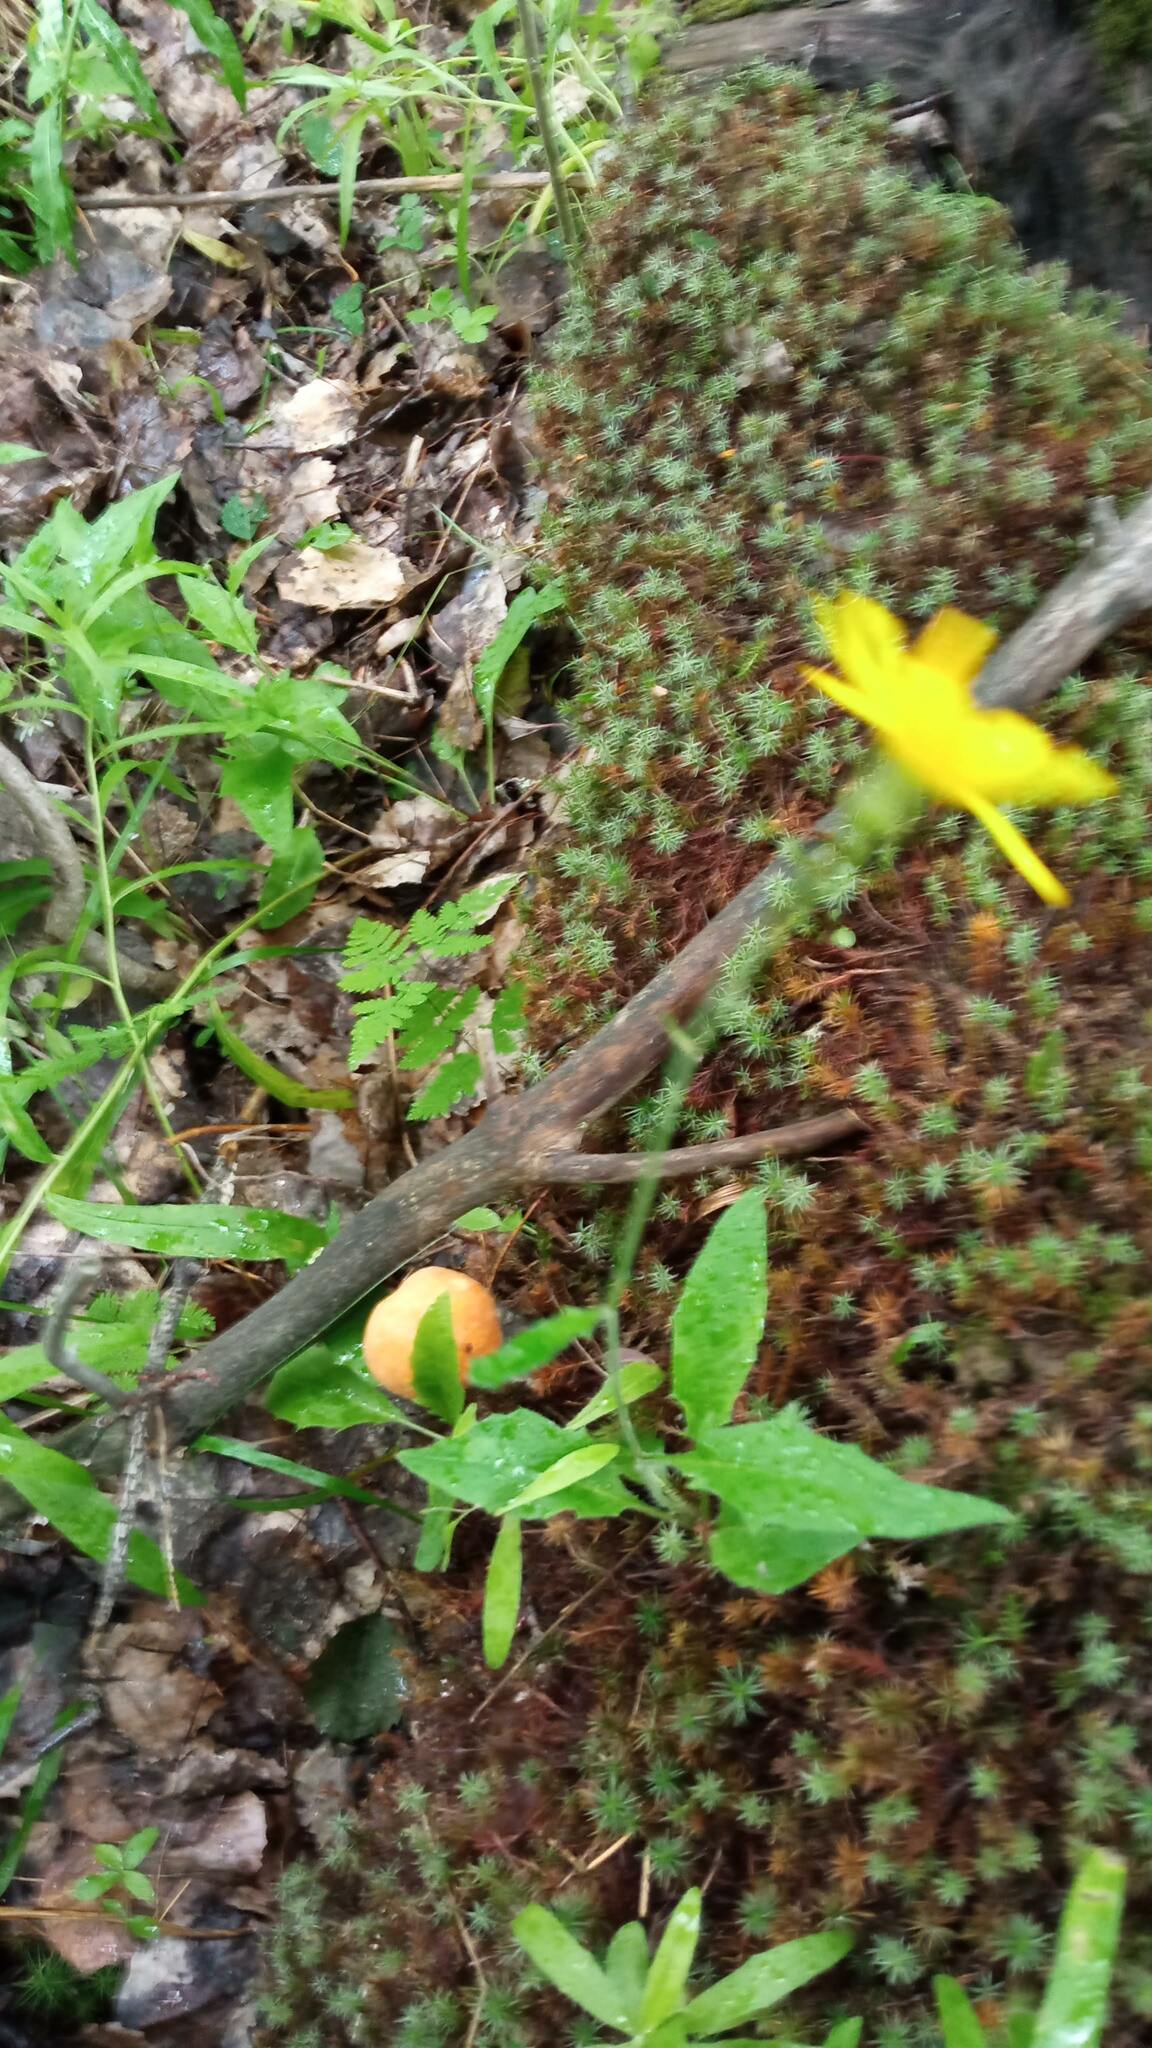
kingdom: Fungi
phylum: Basidiomycota
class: Agaricomycetes
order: Boletales
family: Boletaceae
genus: Leccinum
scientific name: Leccinum versipelle
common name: Orange birch bolete
